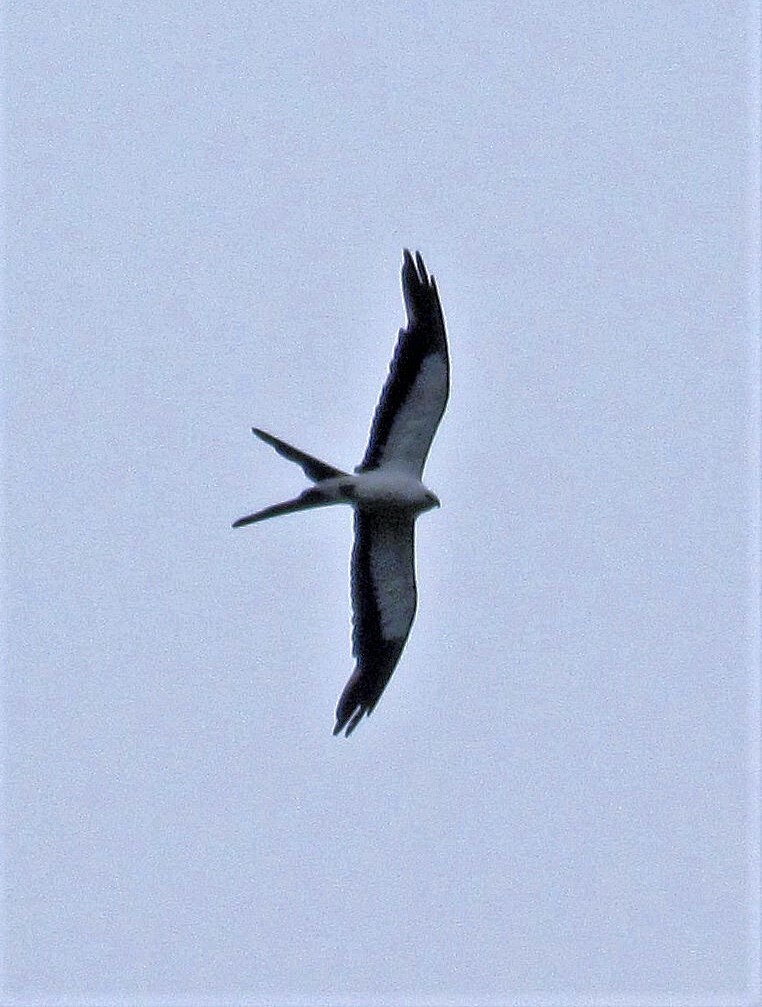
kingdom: Animalia
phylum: Chordata
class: Aves
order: Accipitriformes
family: Accipitridae
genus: Elanoides
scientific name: Elanoides forficatus
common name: Swallow-tailed kite
